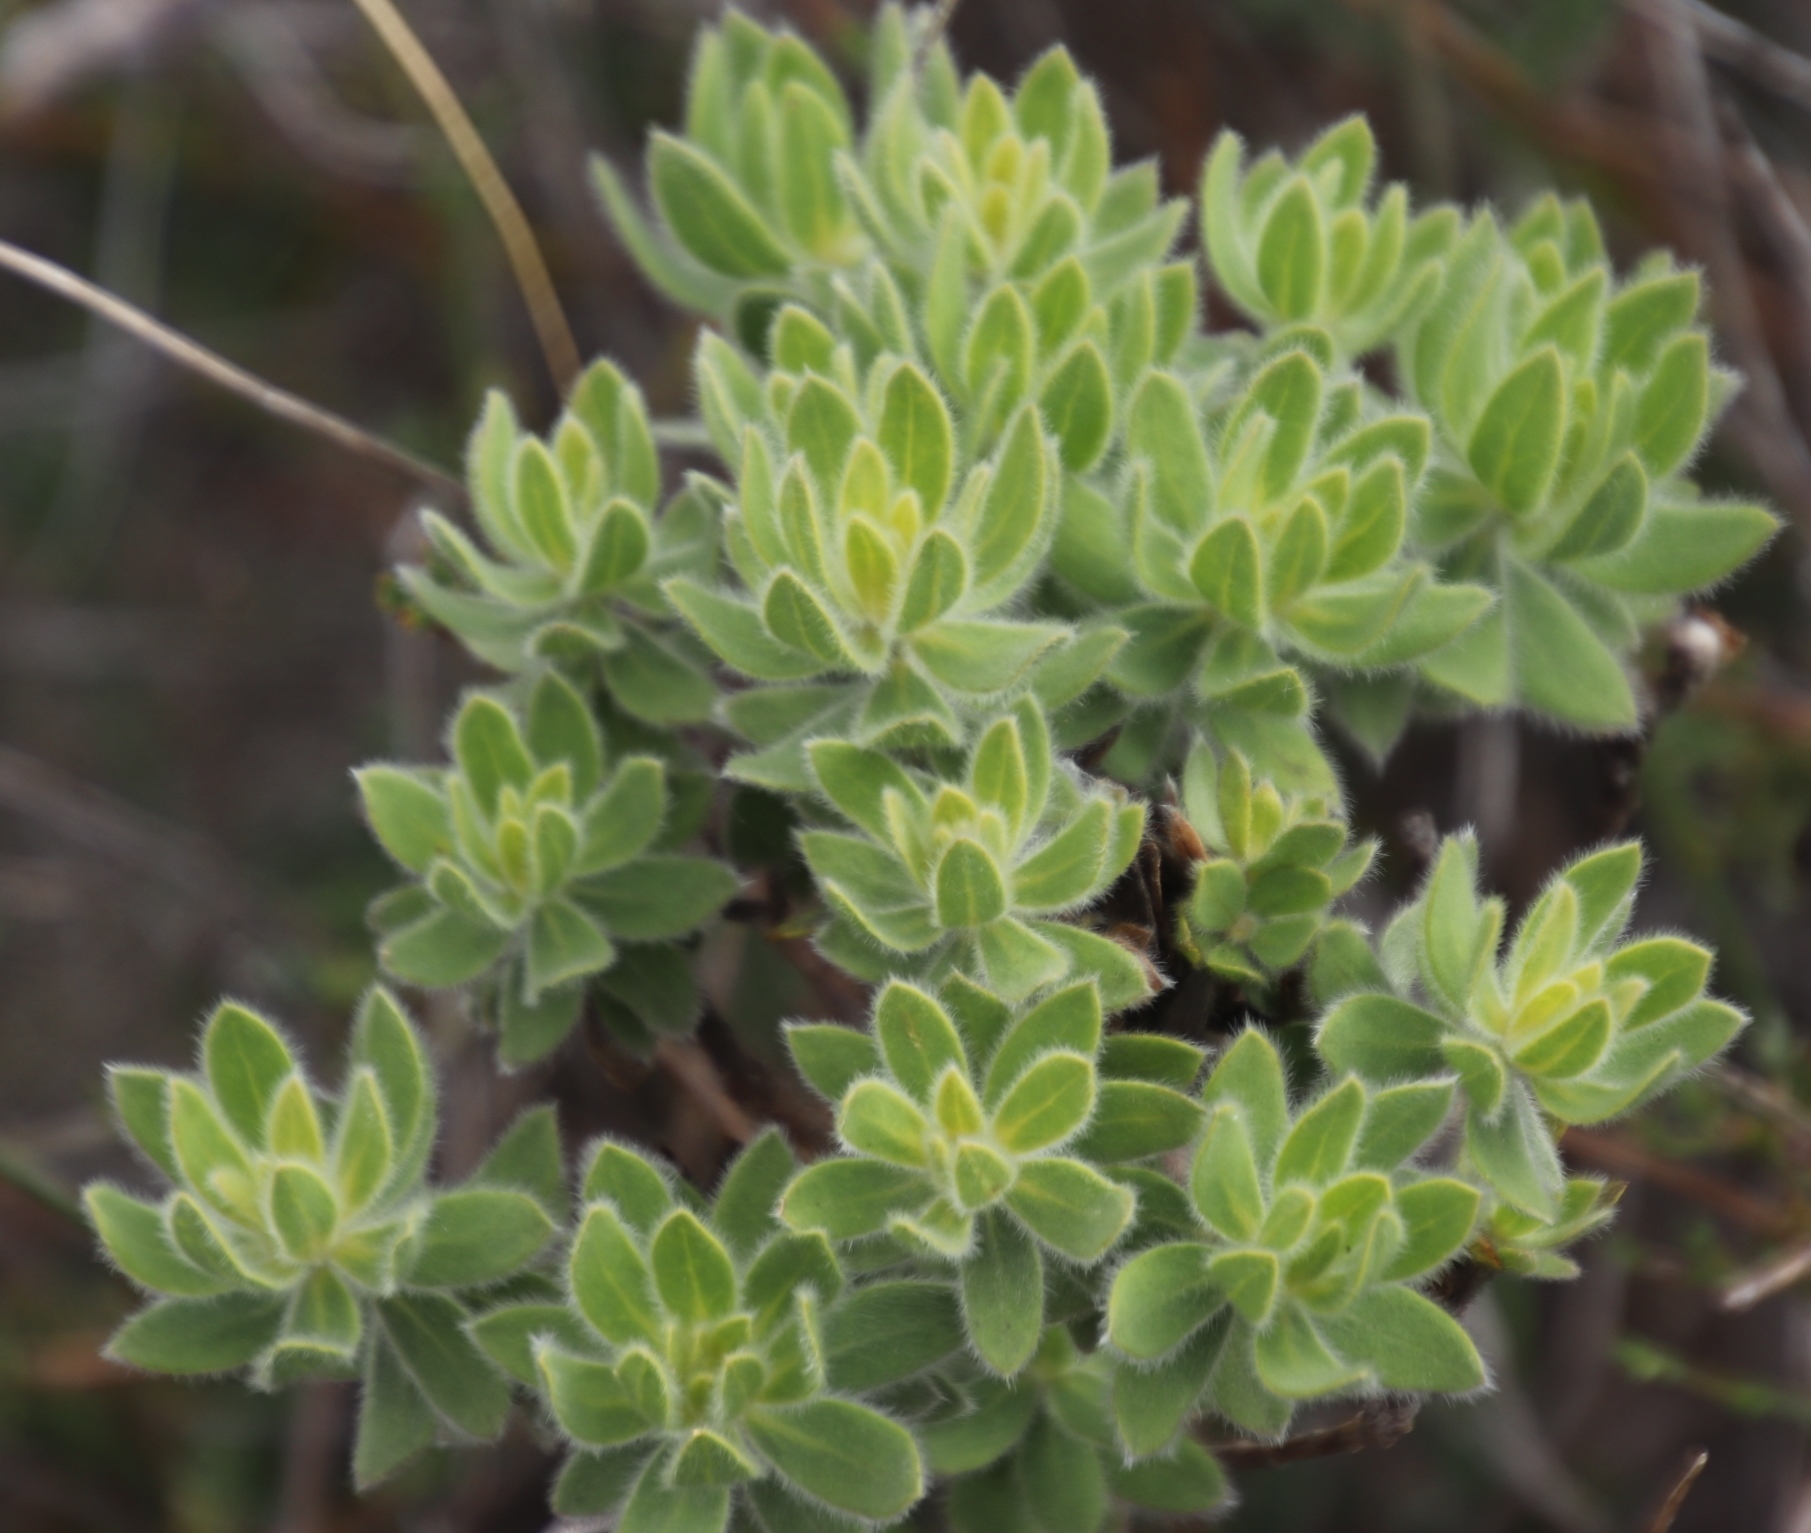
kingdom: Plantae
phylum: Tracheophyta
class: Magnoliopsida
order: Fabales
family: Fabaceae
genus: Xiphotheca
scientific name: Xiphotheca guthriei
